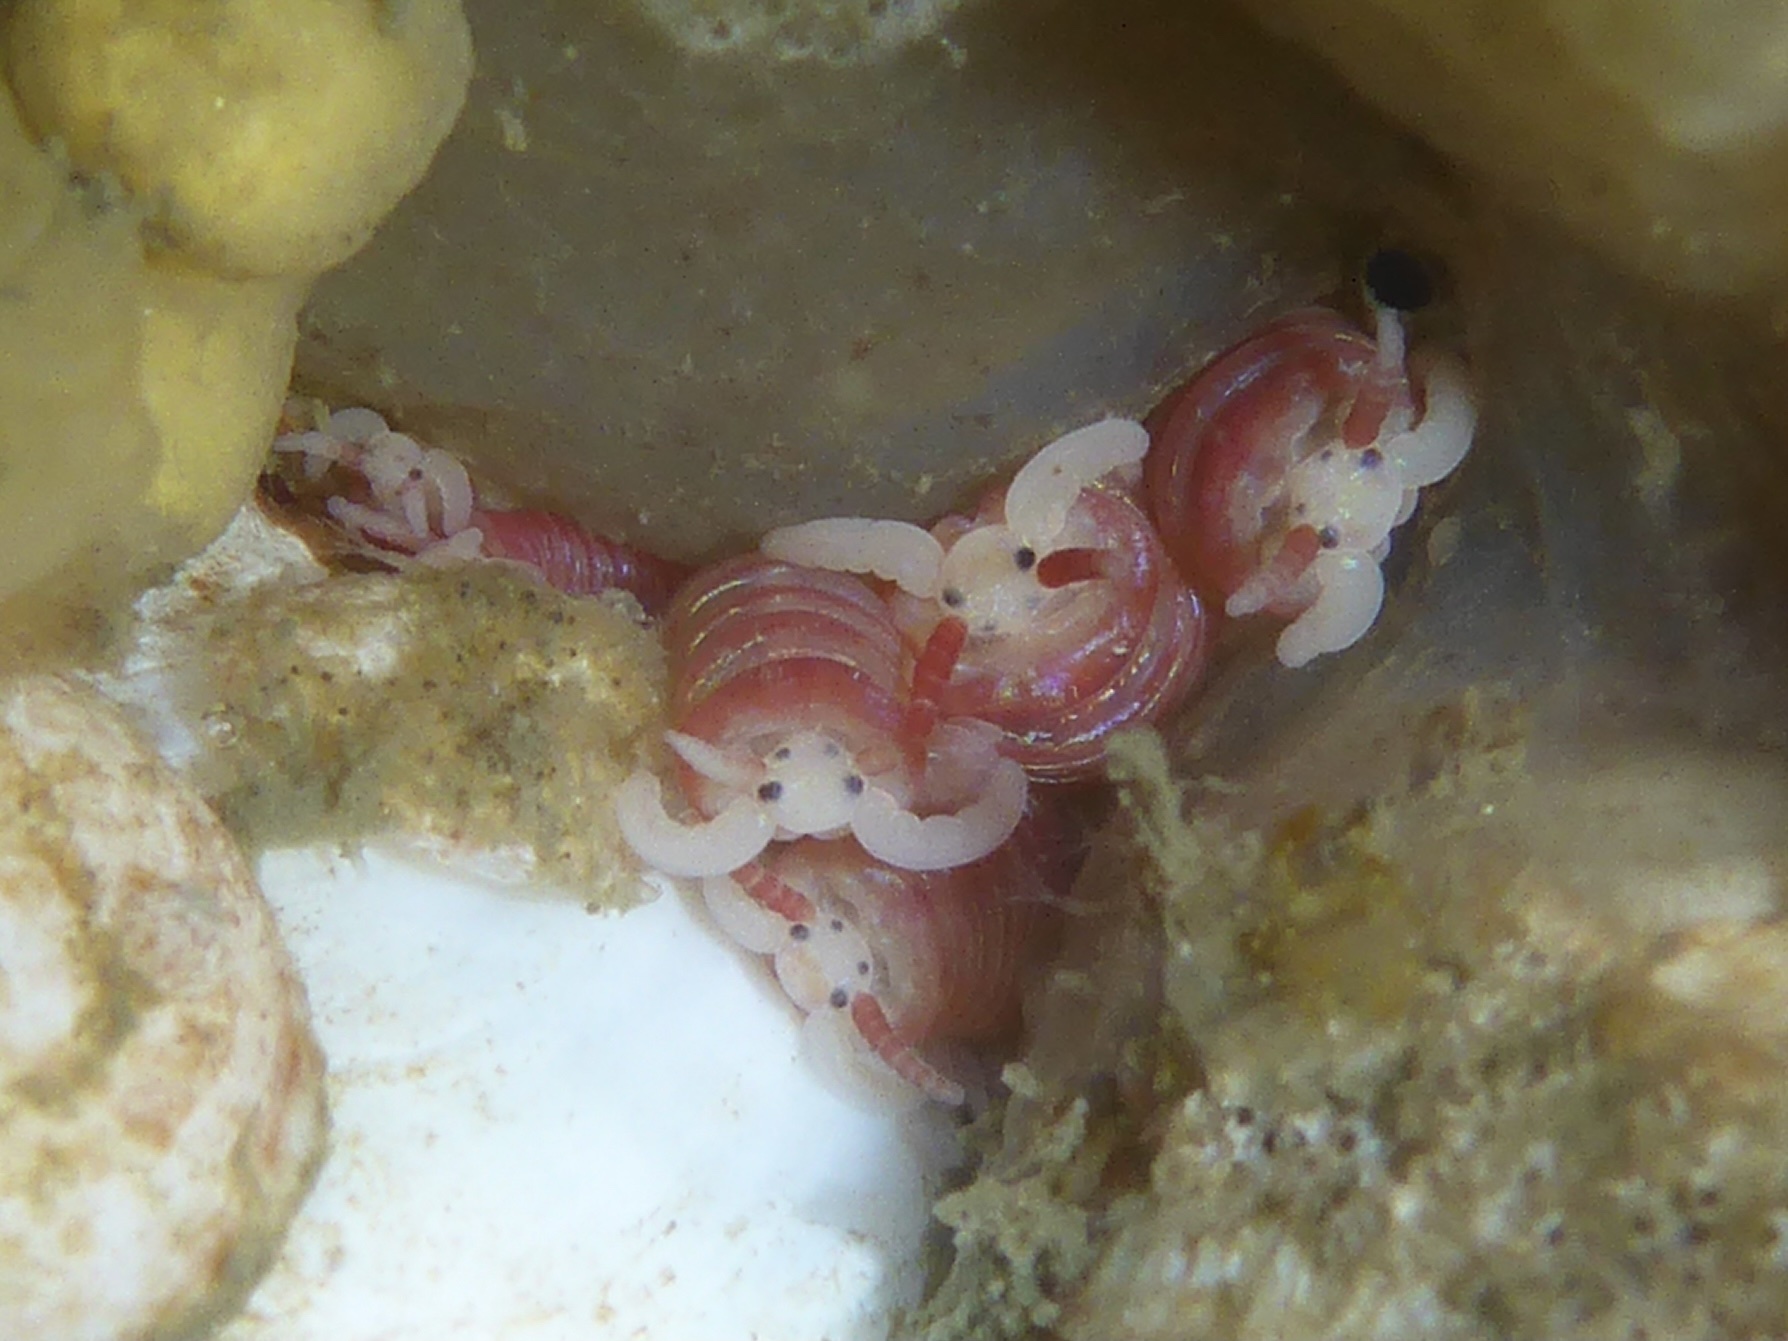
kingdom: Animalia
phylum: Annelida
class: Polychaeta
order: Eunicida
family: Dorvilleidae
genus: Dorvillea
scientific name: Dorvillea moniloceras
